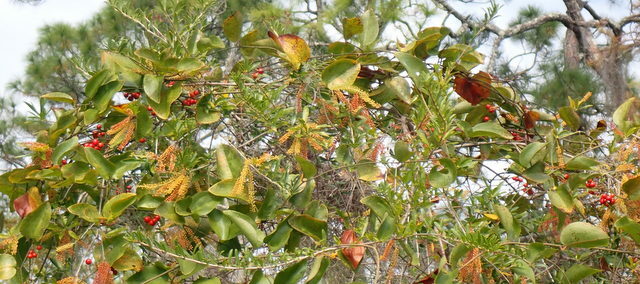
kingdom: Plantae
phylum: Tracheophyta
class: Liliopsida
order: Liliales
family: Smilacaceae
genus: Smilax
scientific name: Smilax walteri
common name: Coral greenbrier
